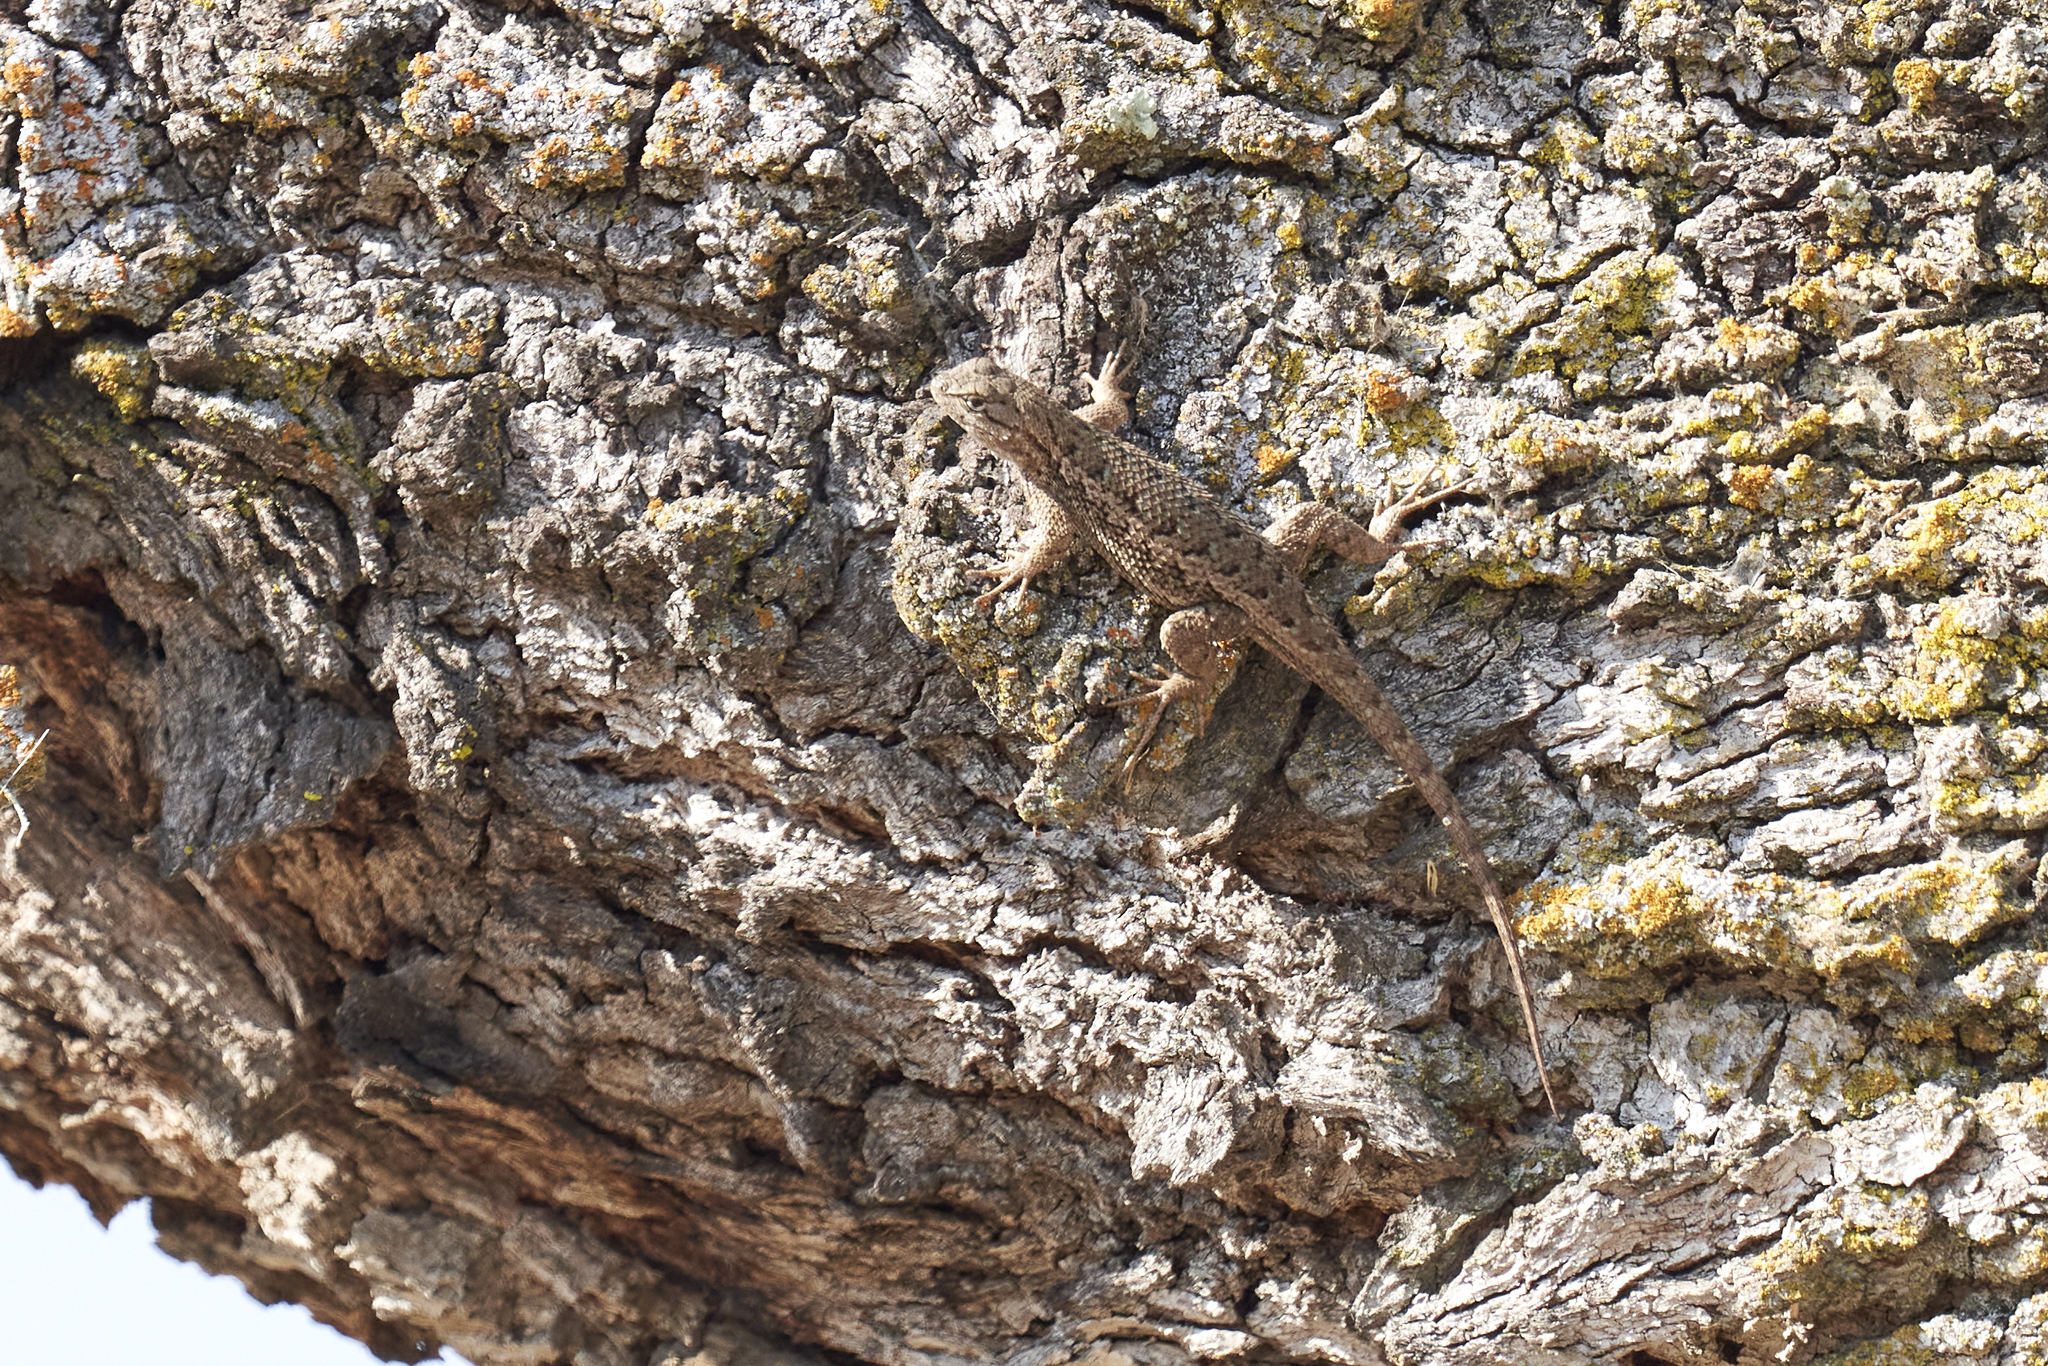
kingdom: Animalia
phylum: Chordata
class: Squamata
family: Phrynosomatidae
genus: Sceloporus
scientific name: Sceloporus occidentalis
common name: Western fence lizard
